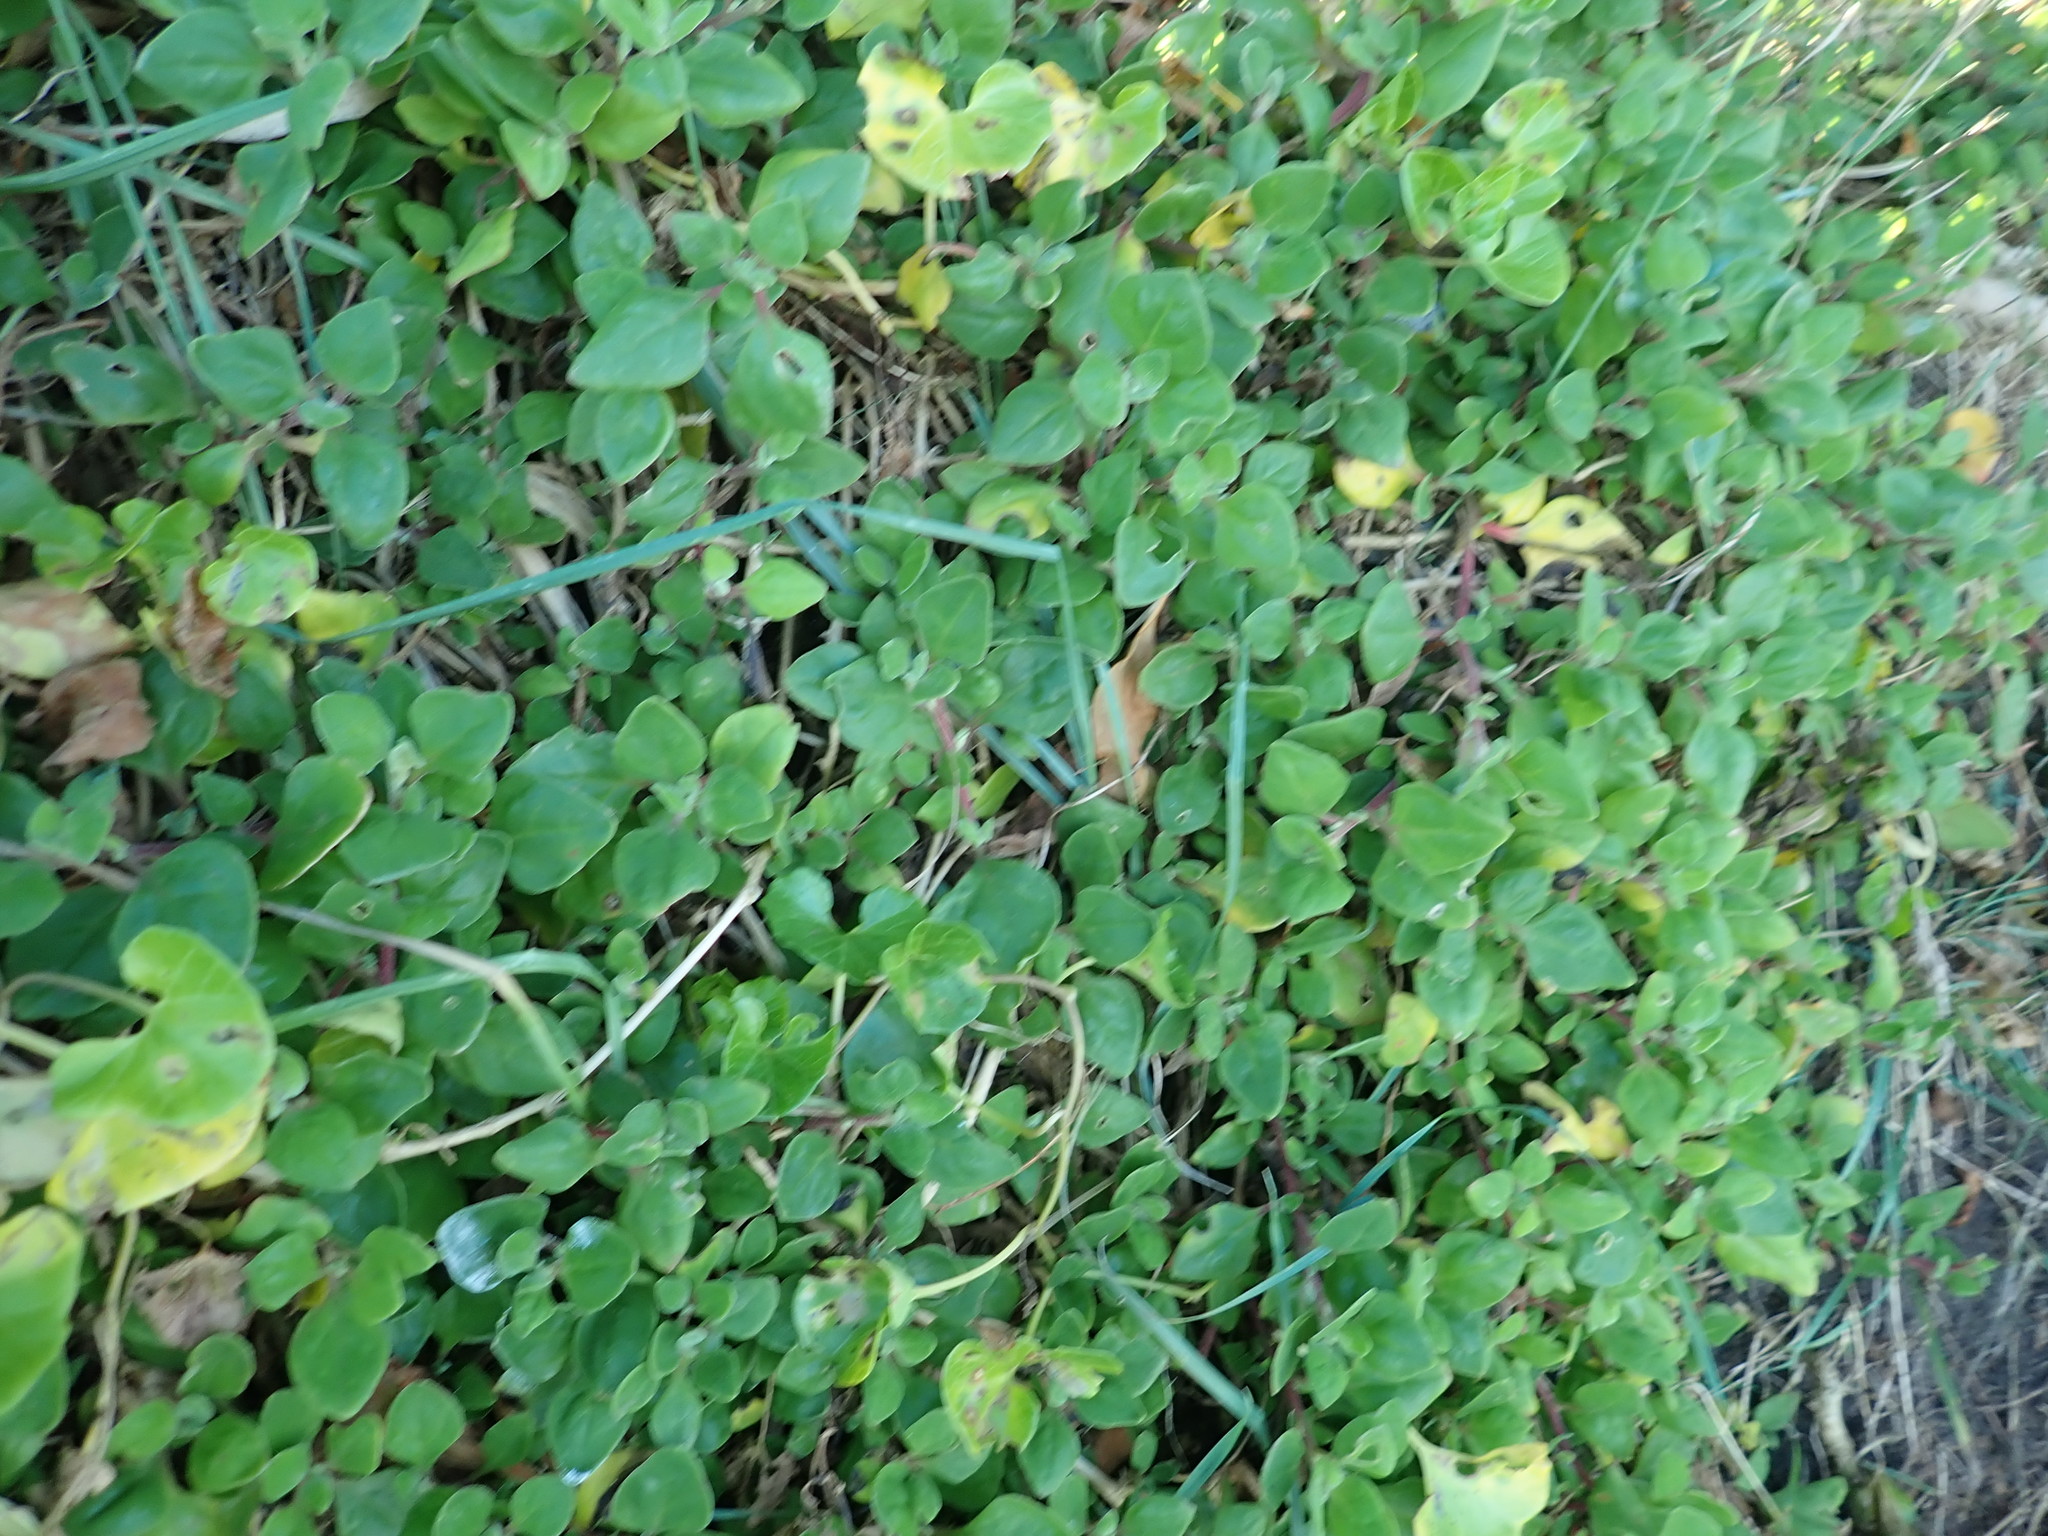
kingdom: Plantae
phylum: Tracheophyta
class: Magnoliopsida
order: Caryophyllales
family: Aizoaceae
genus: Tetragonia
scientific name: Tetragonia implexicoma
